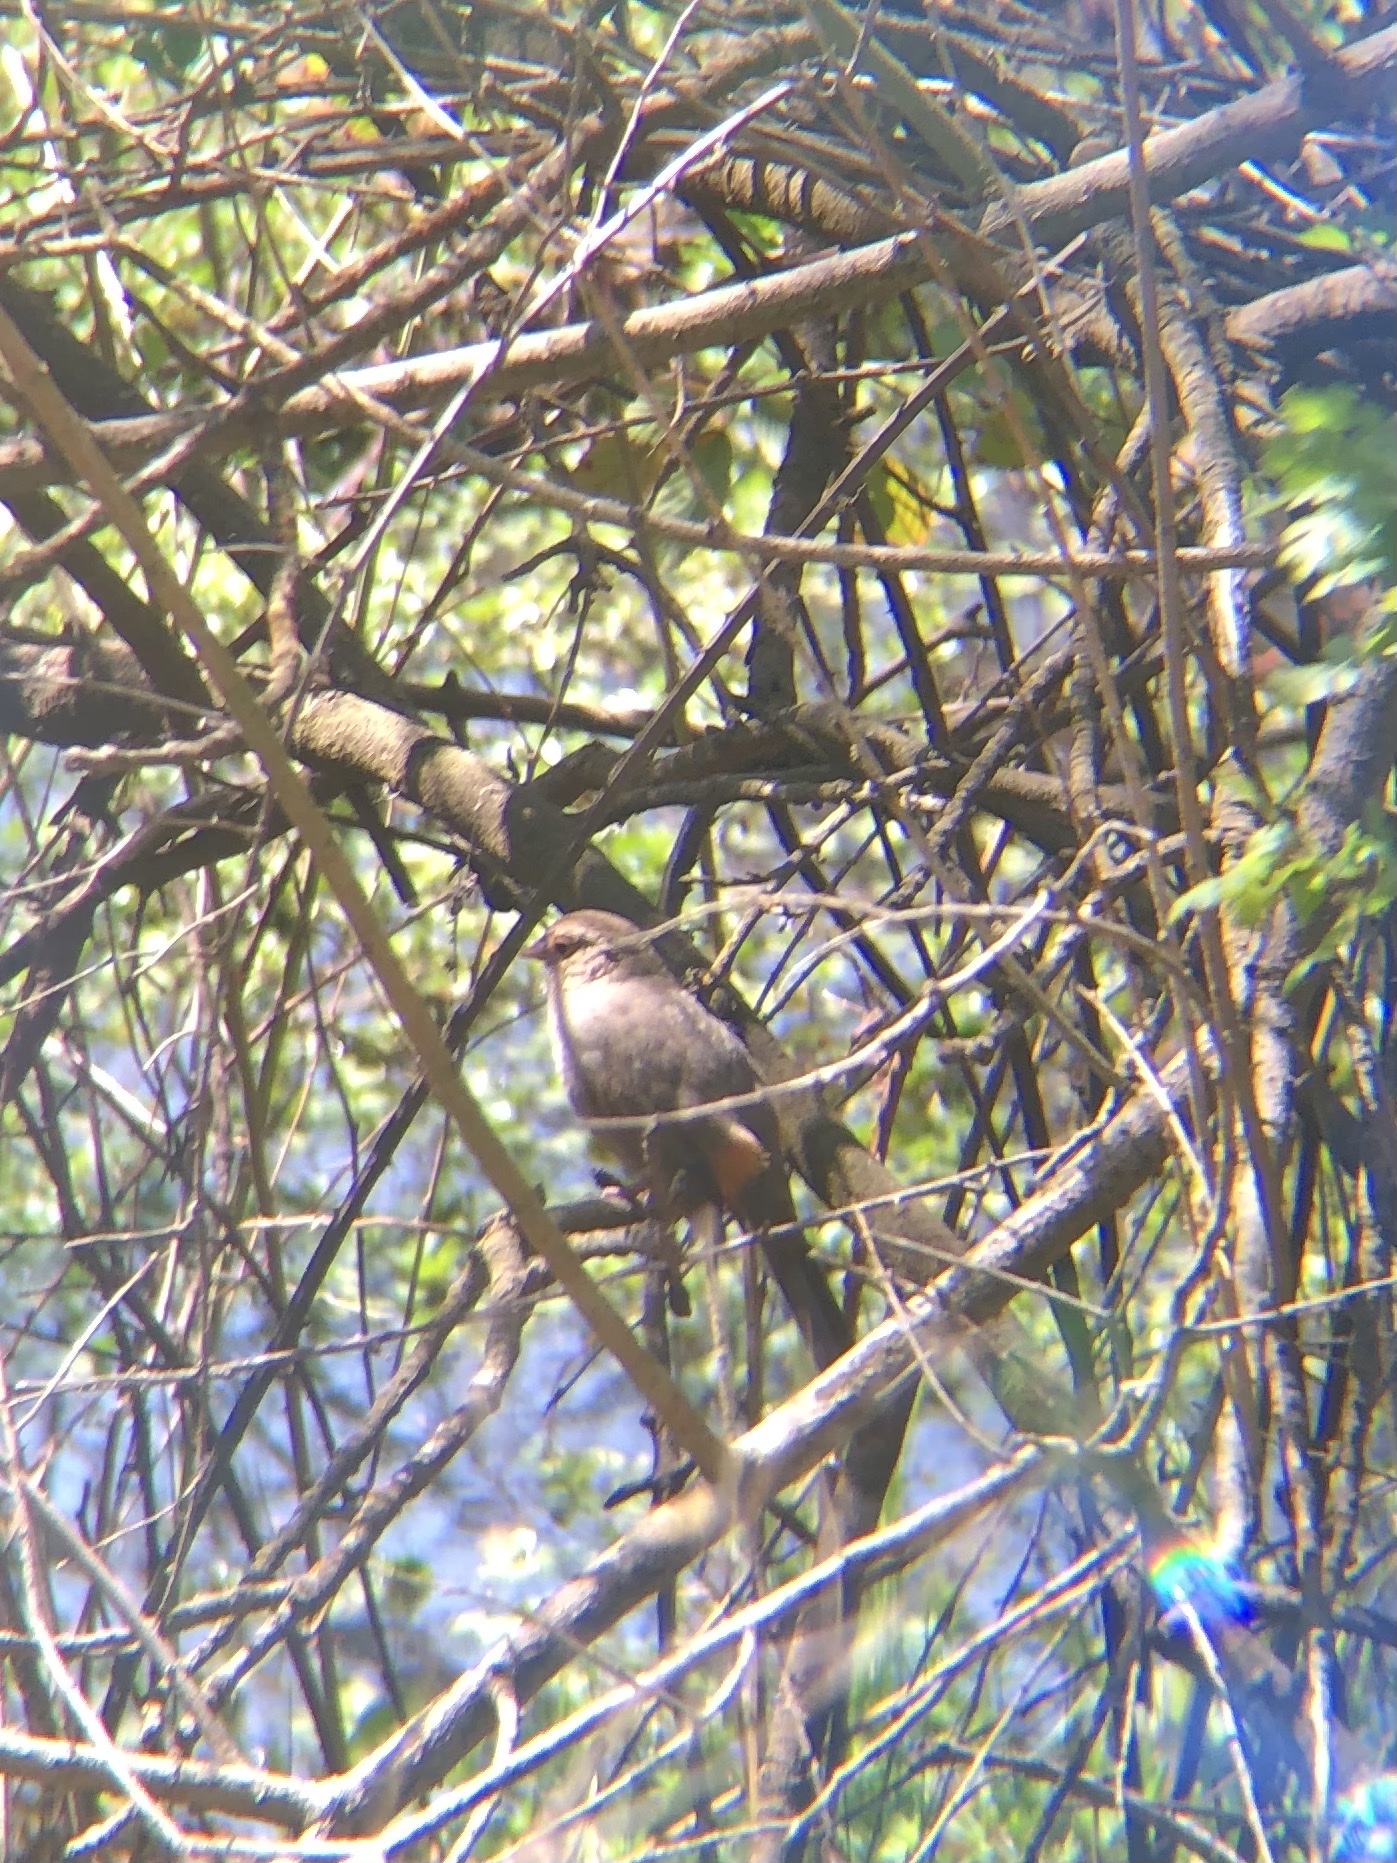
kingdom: Animalia
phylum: Chordata
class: Aves
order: Passeriformes
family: Passerellidae
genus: Melozone
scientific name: Melozone crissalis
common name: California towhee
